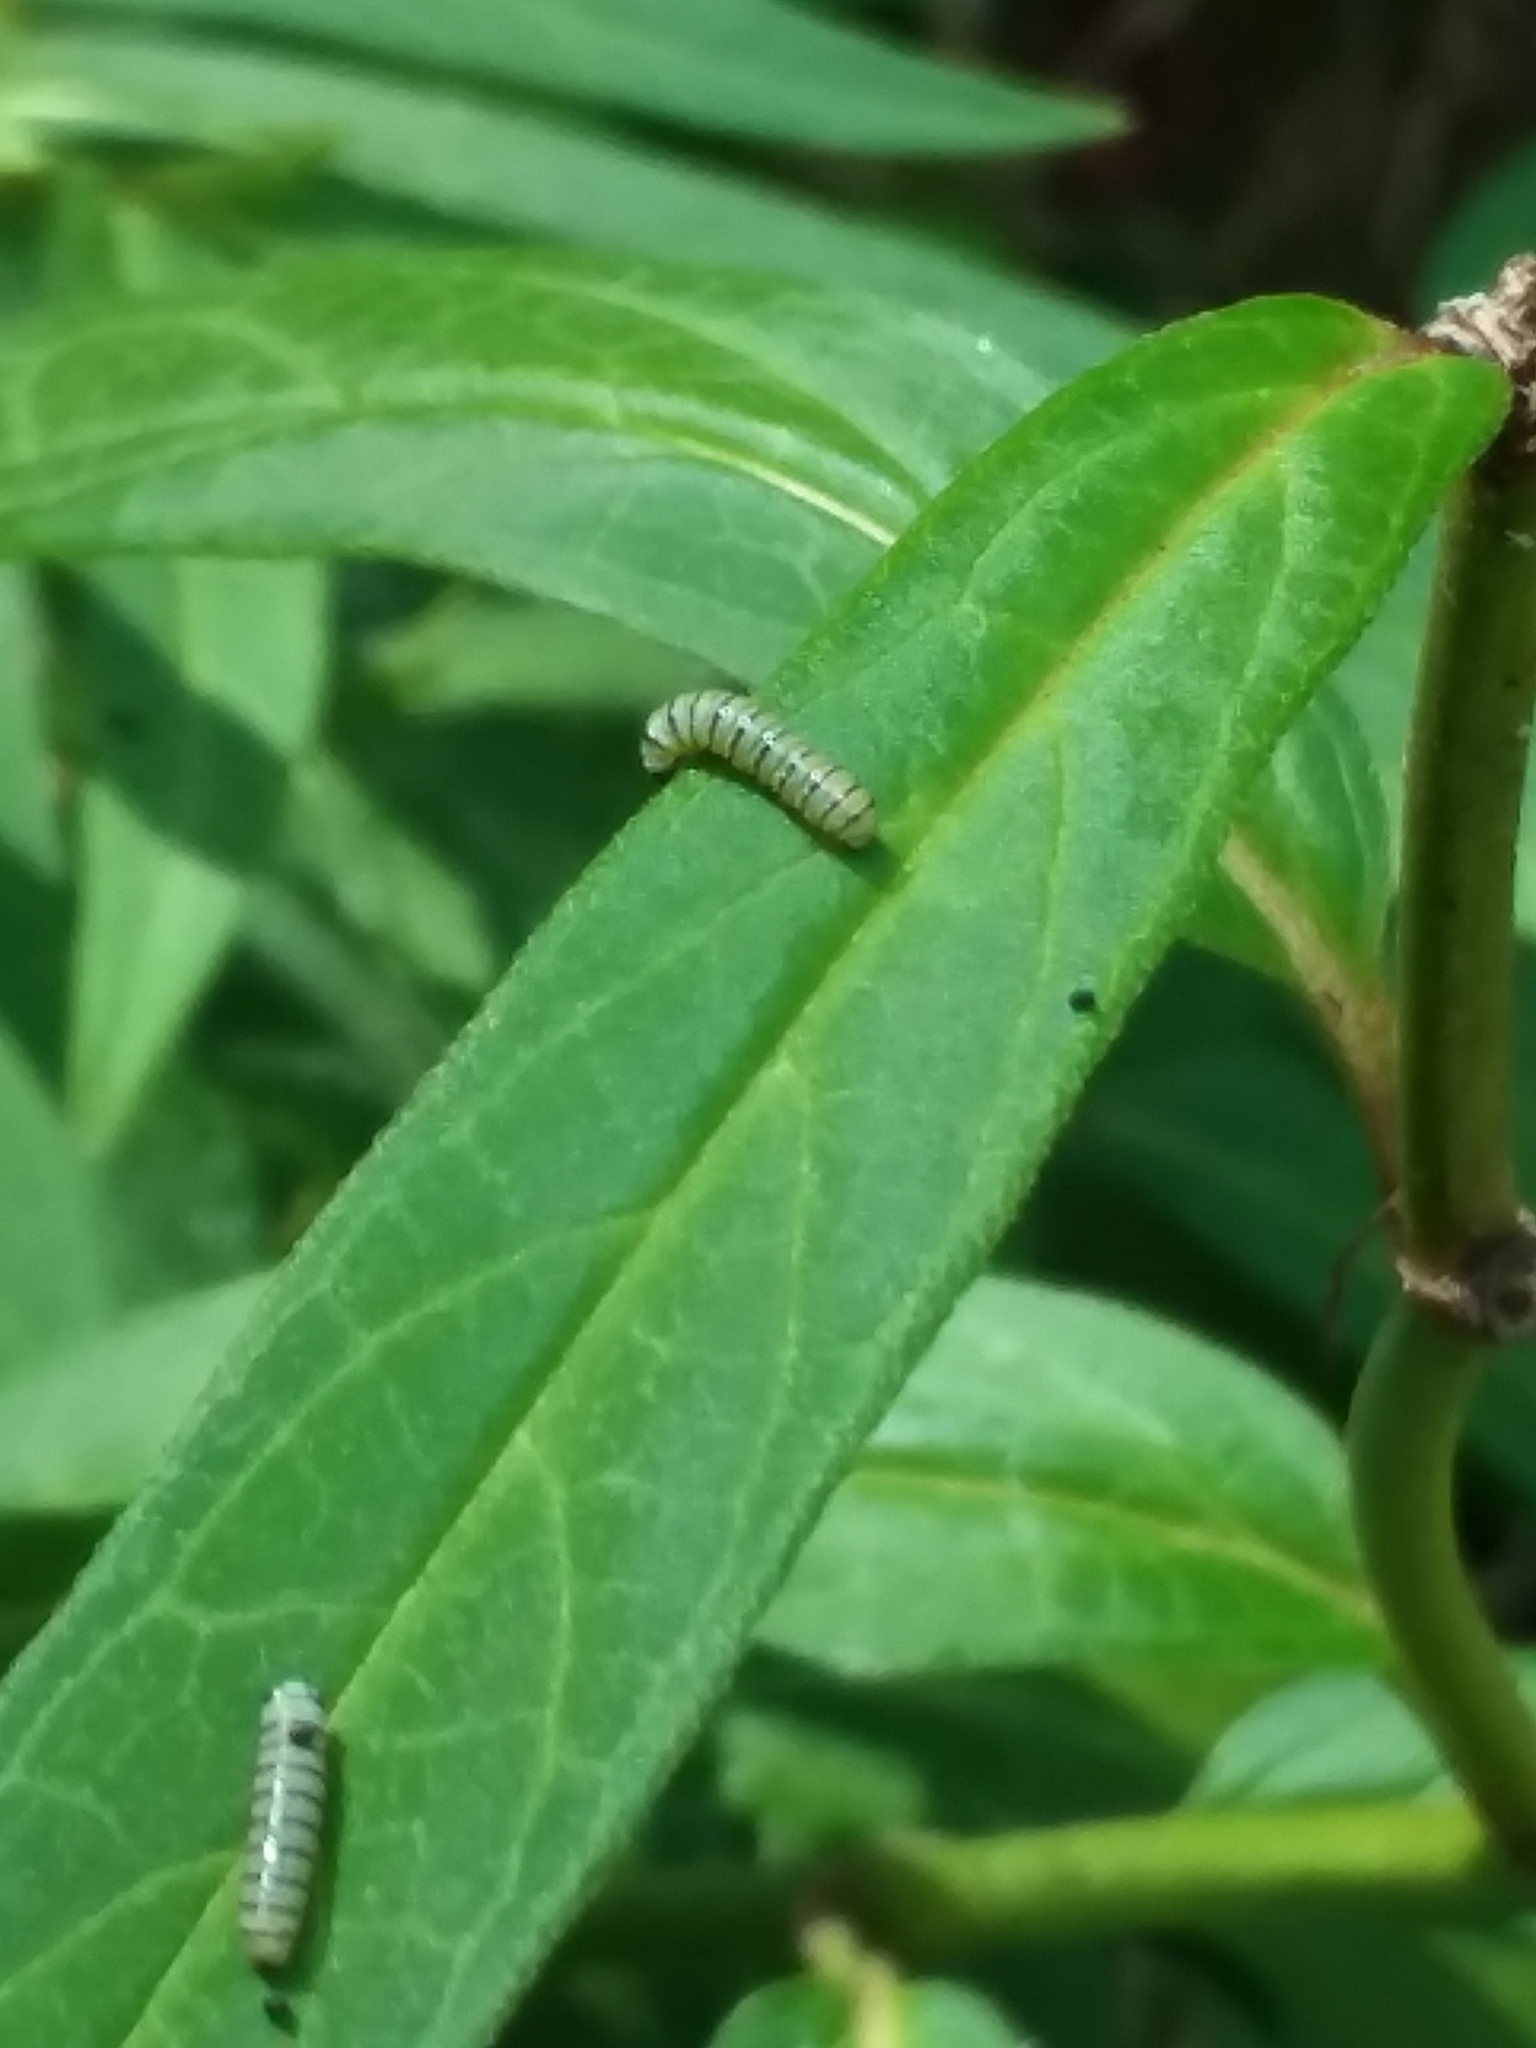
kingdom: Animalia
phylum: Arthropoda
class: Insecta
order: Lepidoptera
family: Nymphalidae
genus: Danaus
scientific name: Danaus plexippus
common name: Monarch
